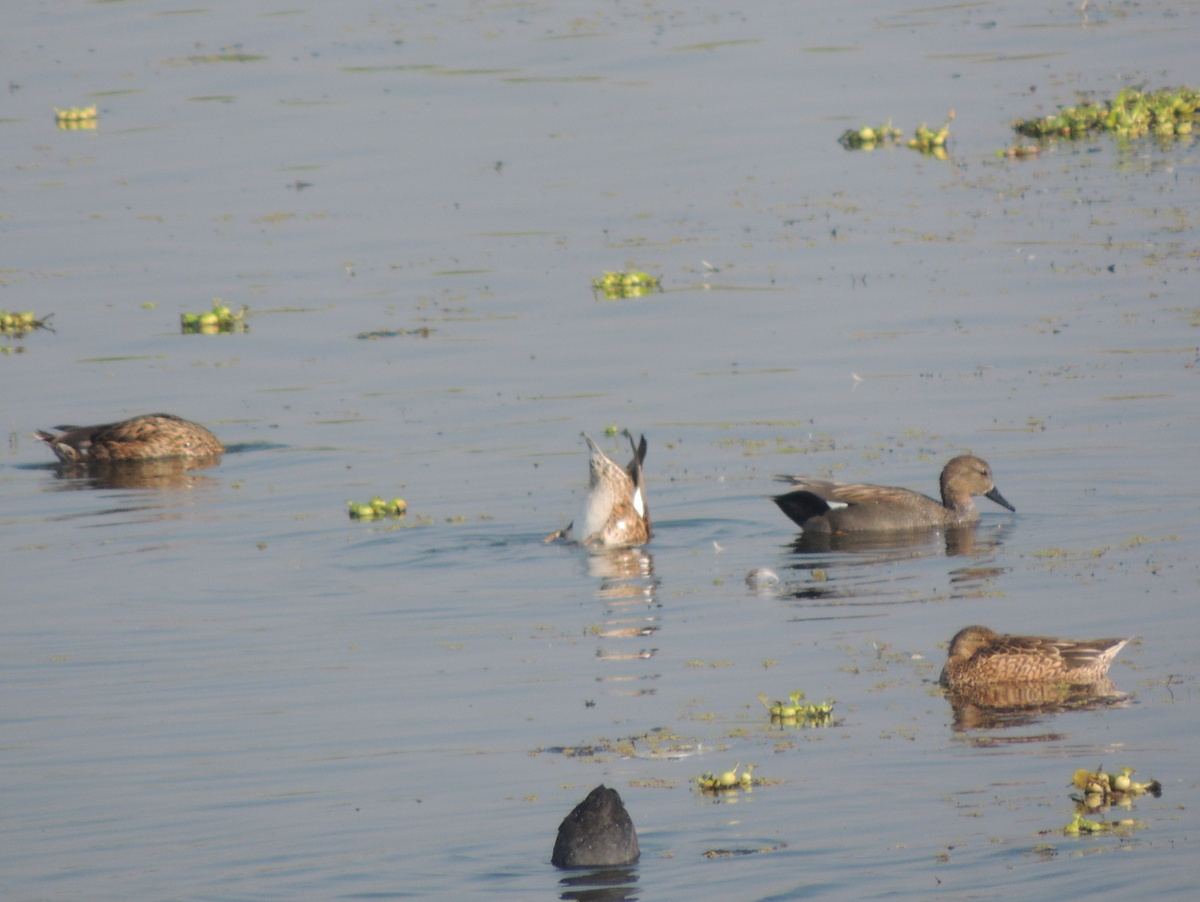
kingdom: Animalia
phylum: Chordata
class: Aves
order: Anseriformes
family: Anatidae
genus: Mareca
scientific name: Mareca strepera
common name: Gadwall
